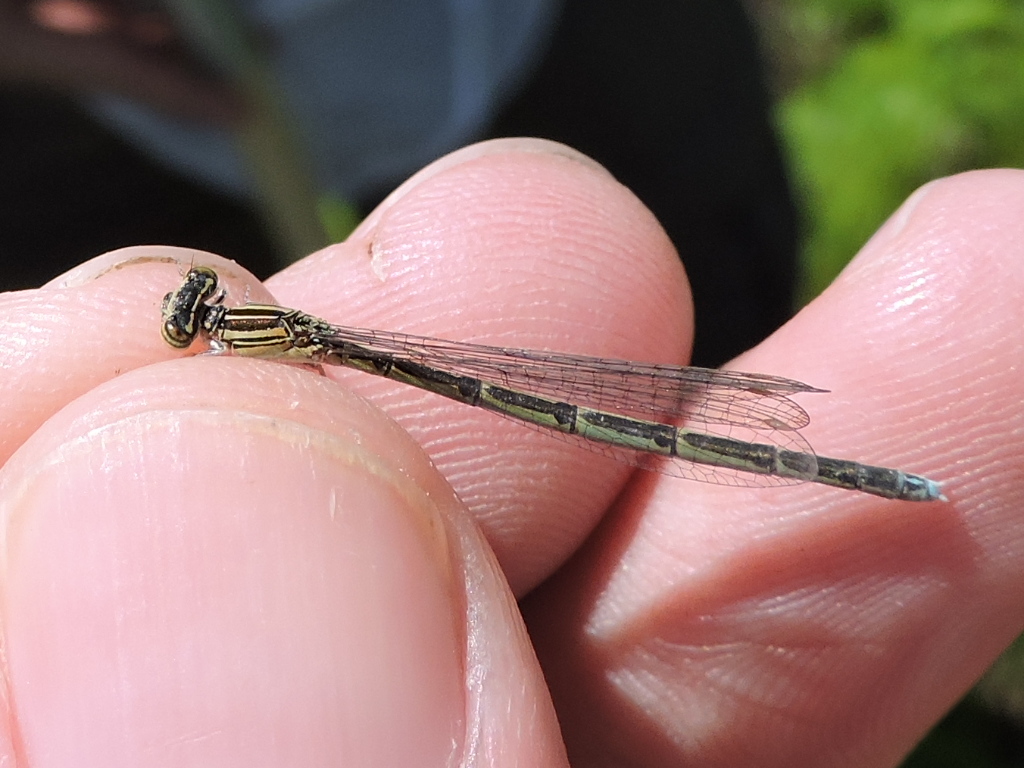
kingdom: Animalia
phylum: Arthropoda
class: Insecta
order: Odonata
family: Coenagrionidae
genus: Enallagma
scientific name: Enallagma basidens
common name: Double-striped bluet
